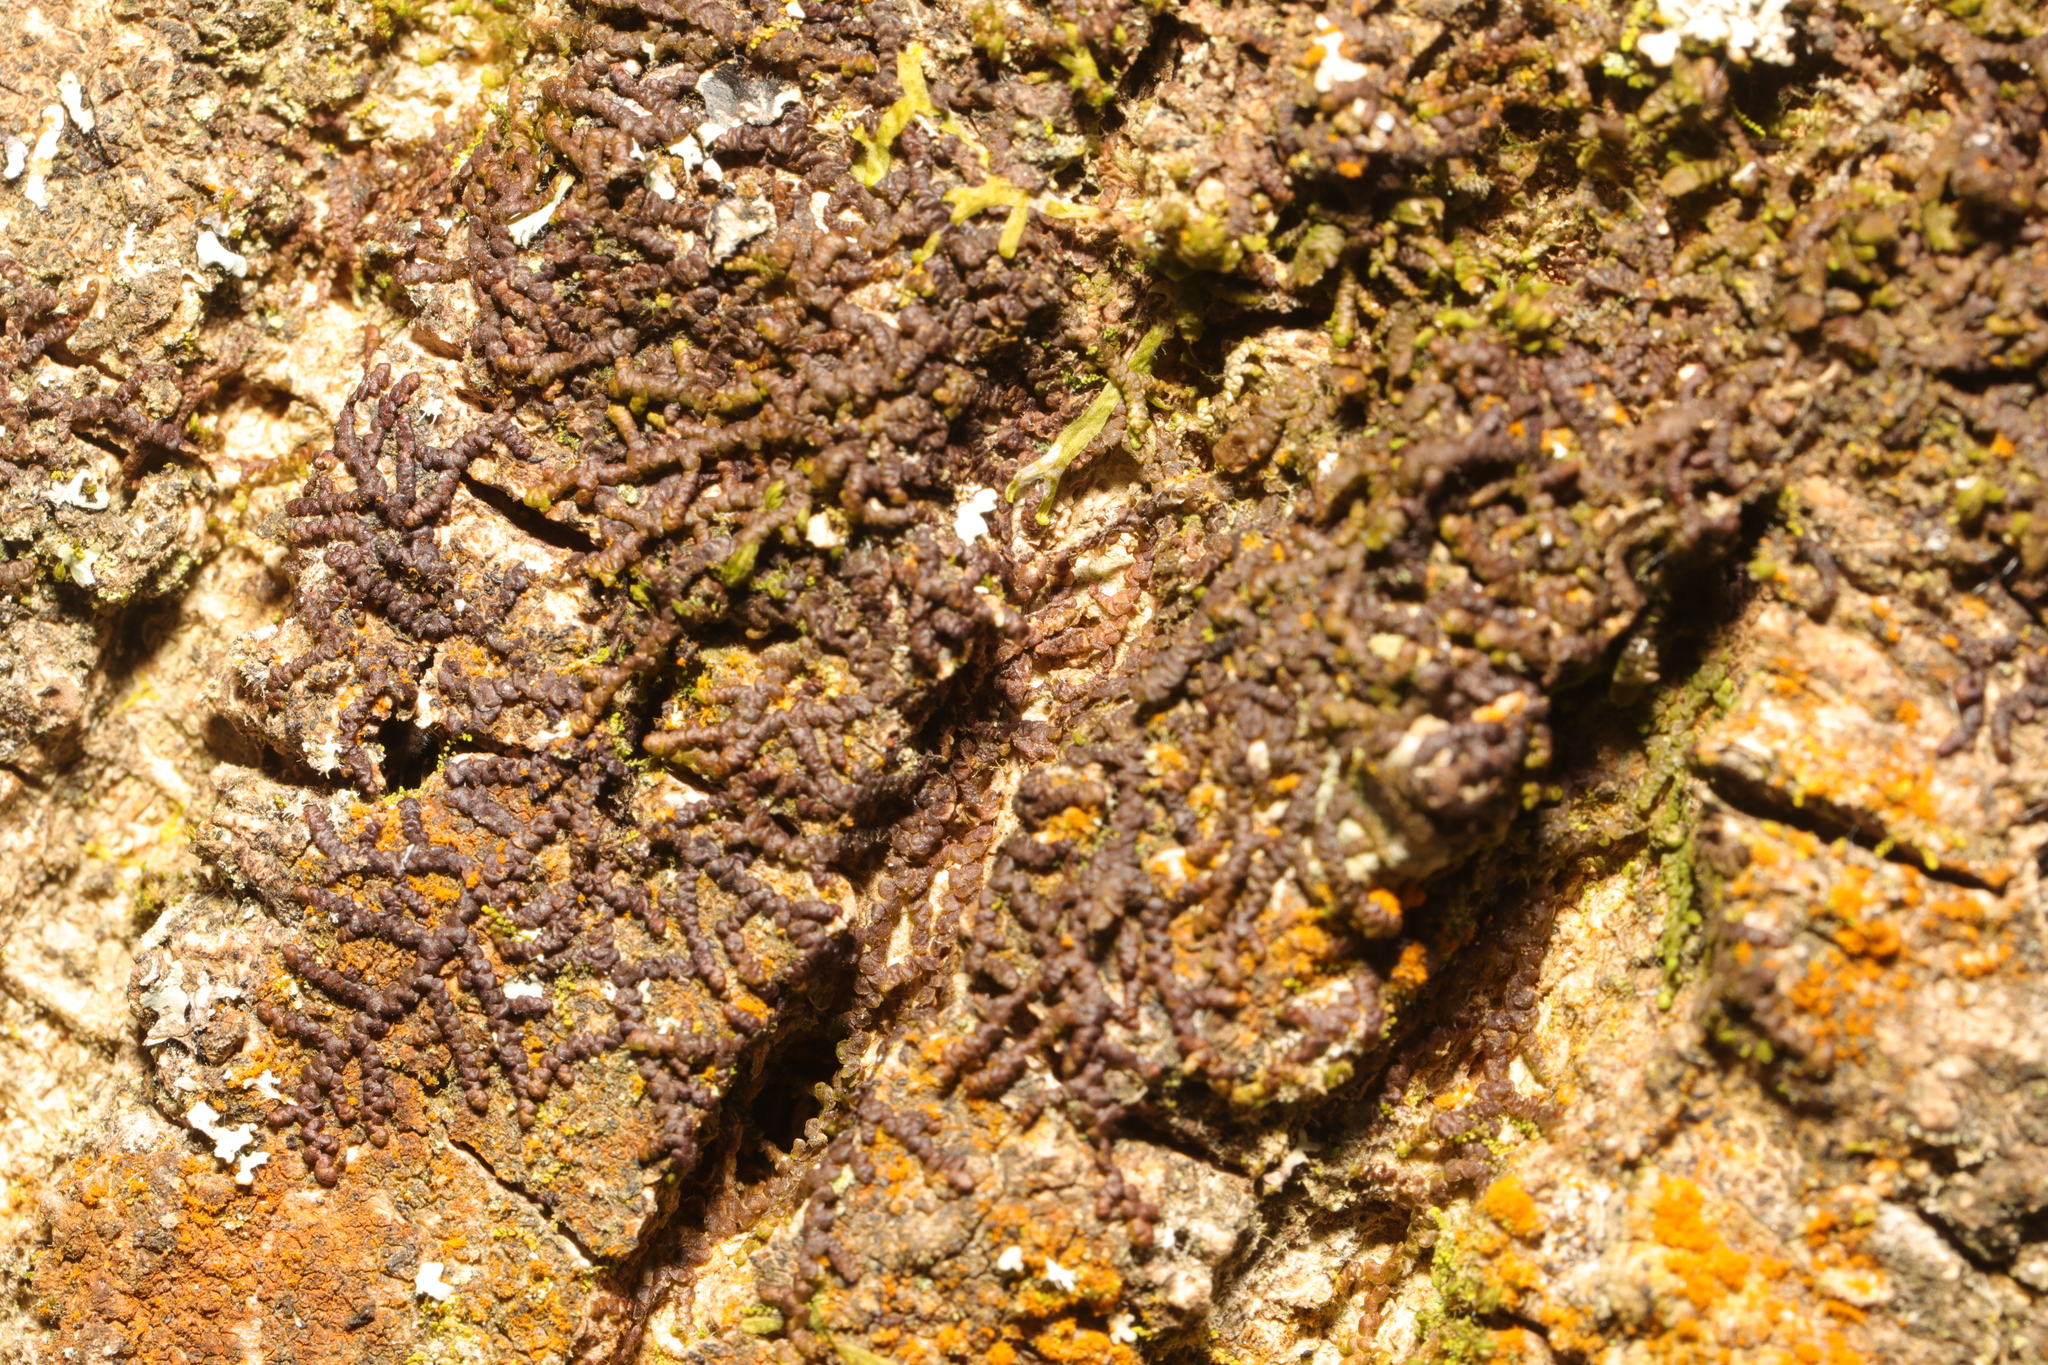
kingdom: Plantae
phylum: Marchantiophyta
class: Jungermanniopsida
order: Porellales
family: Frullaniaceae
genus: Frullania
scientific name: Frullania dilatata
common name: Dilated scalewort
